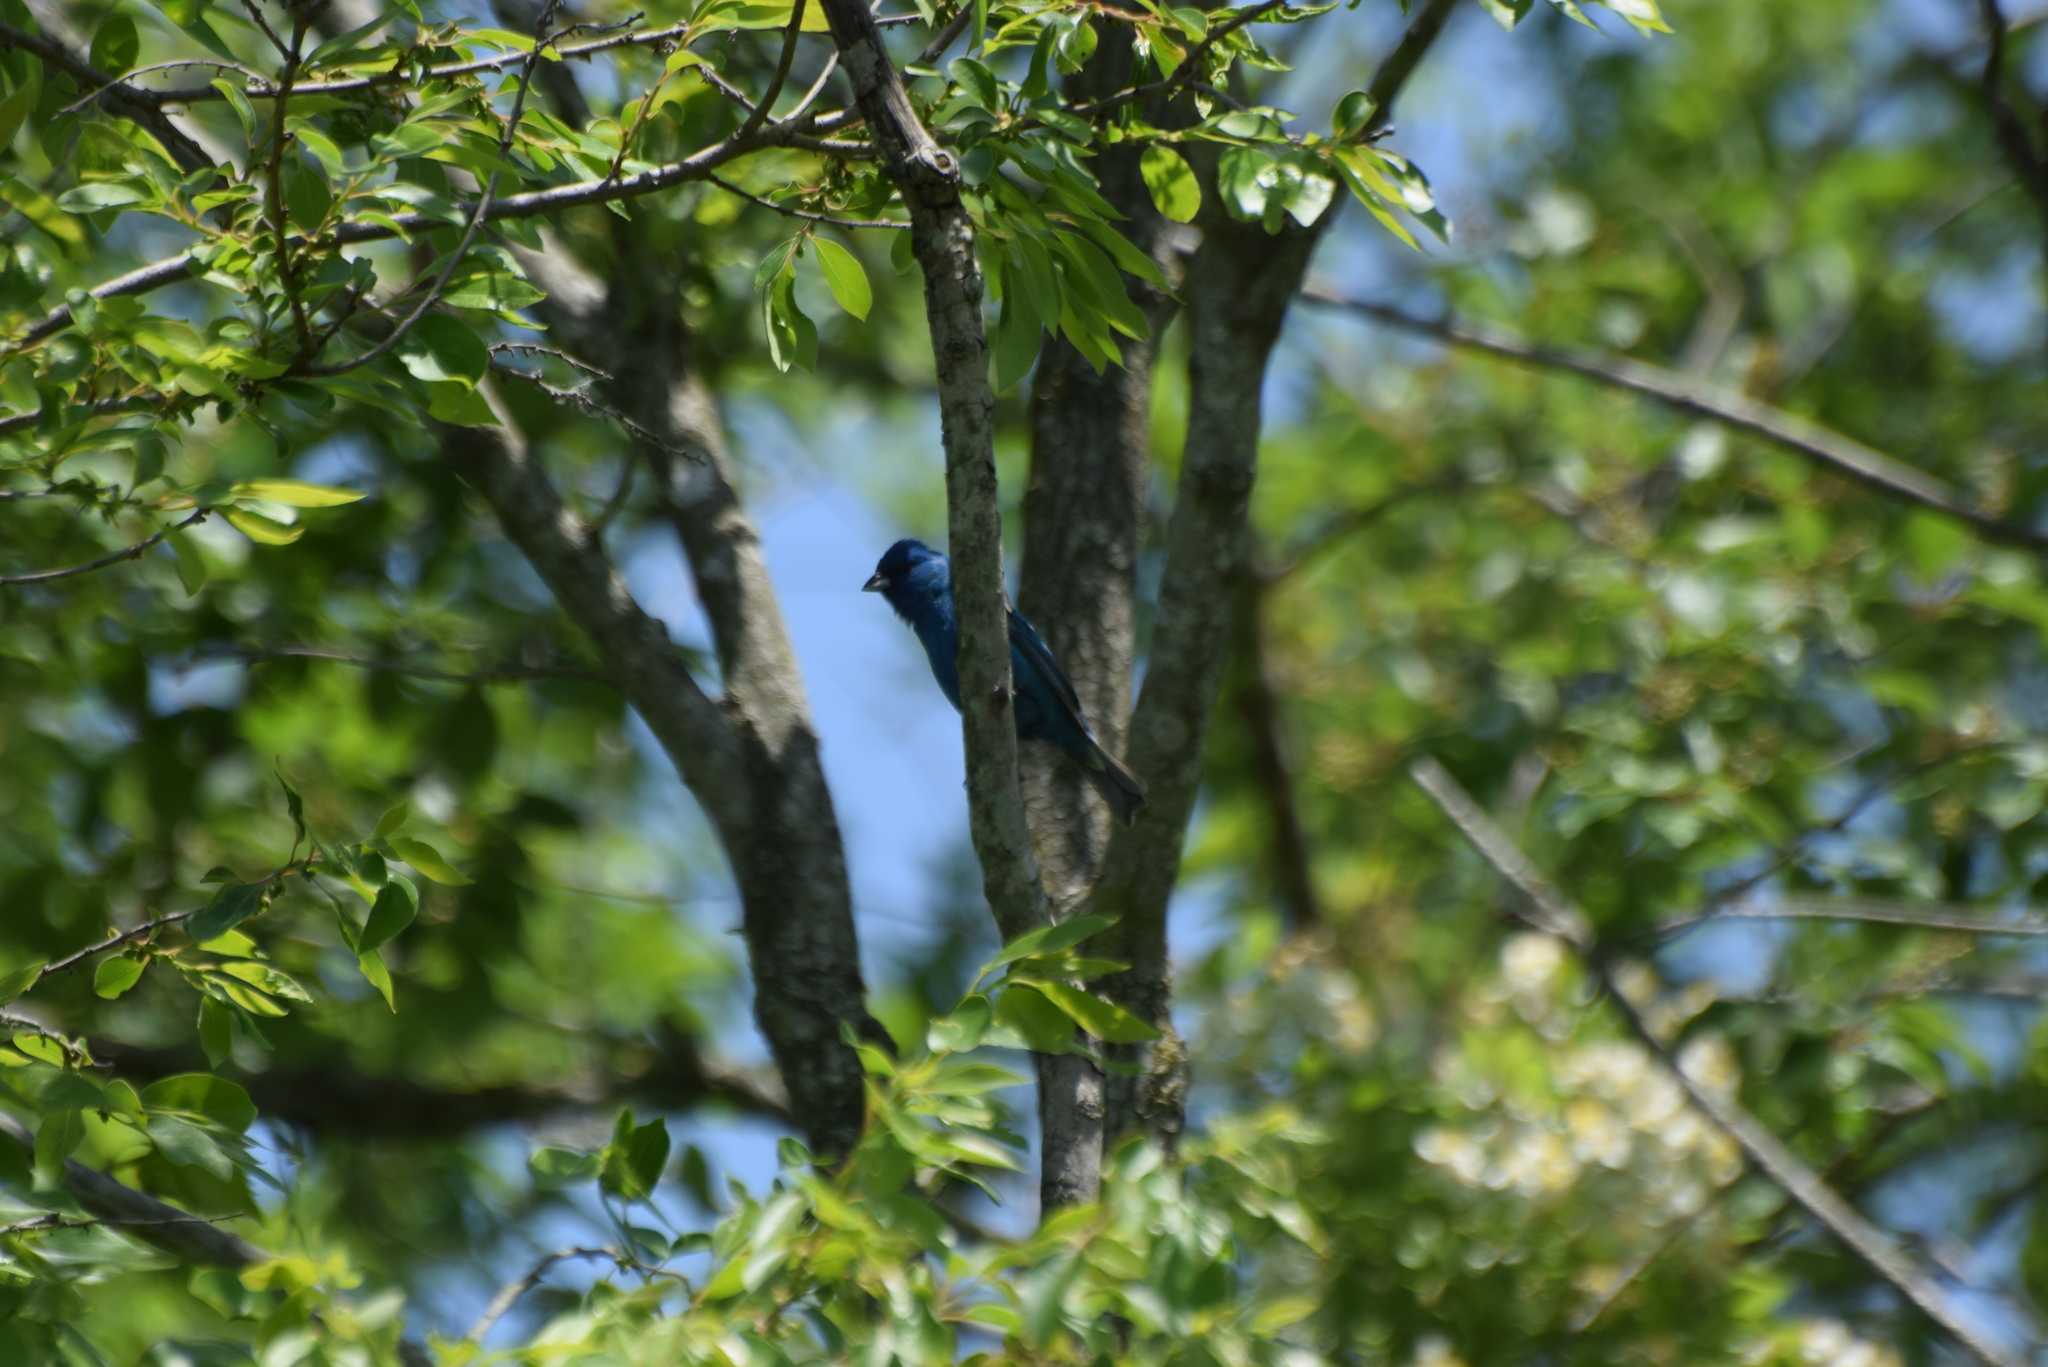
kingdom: Animalia
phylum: Chordata
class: Aves
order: Passeriformes
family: Cardinalidae
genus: Passerina
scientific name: Passerina cyanea
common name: Indigo bunting
